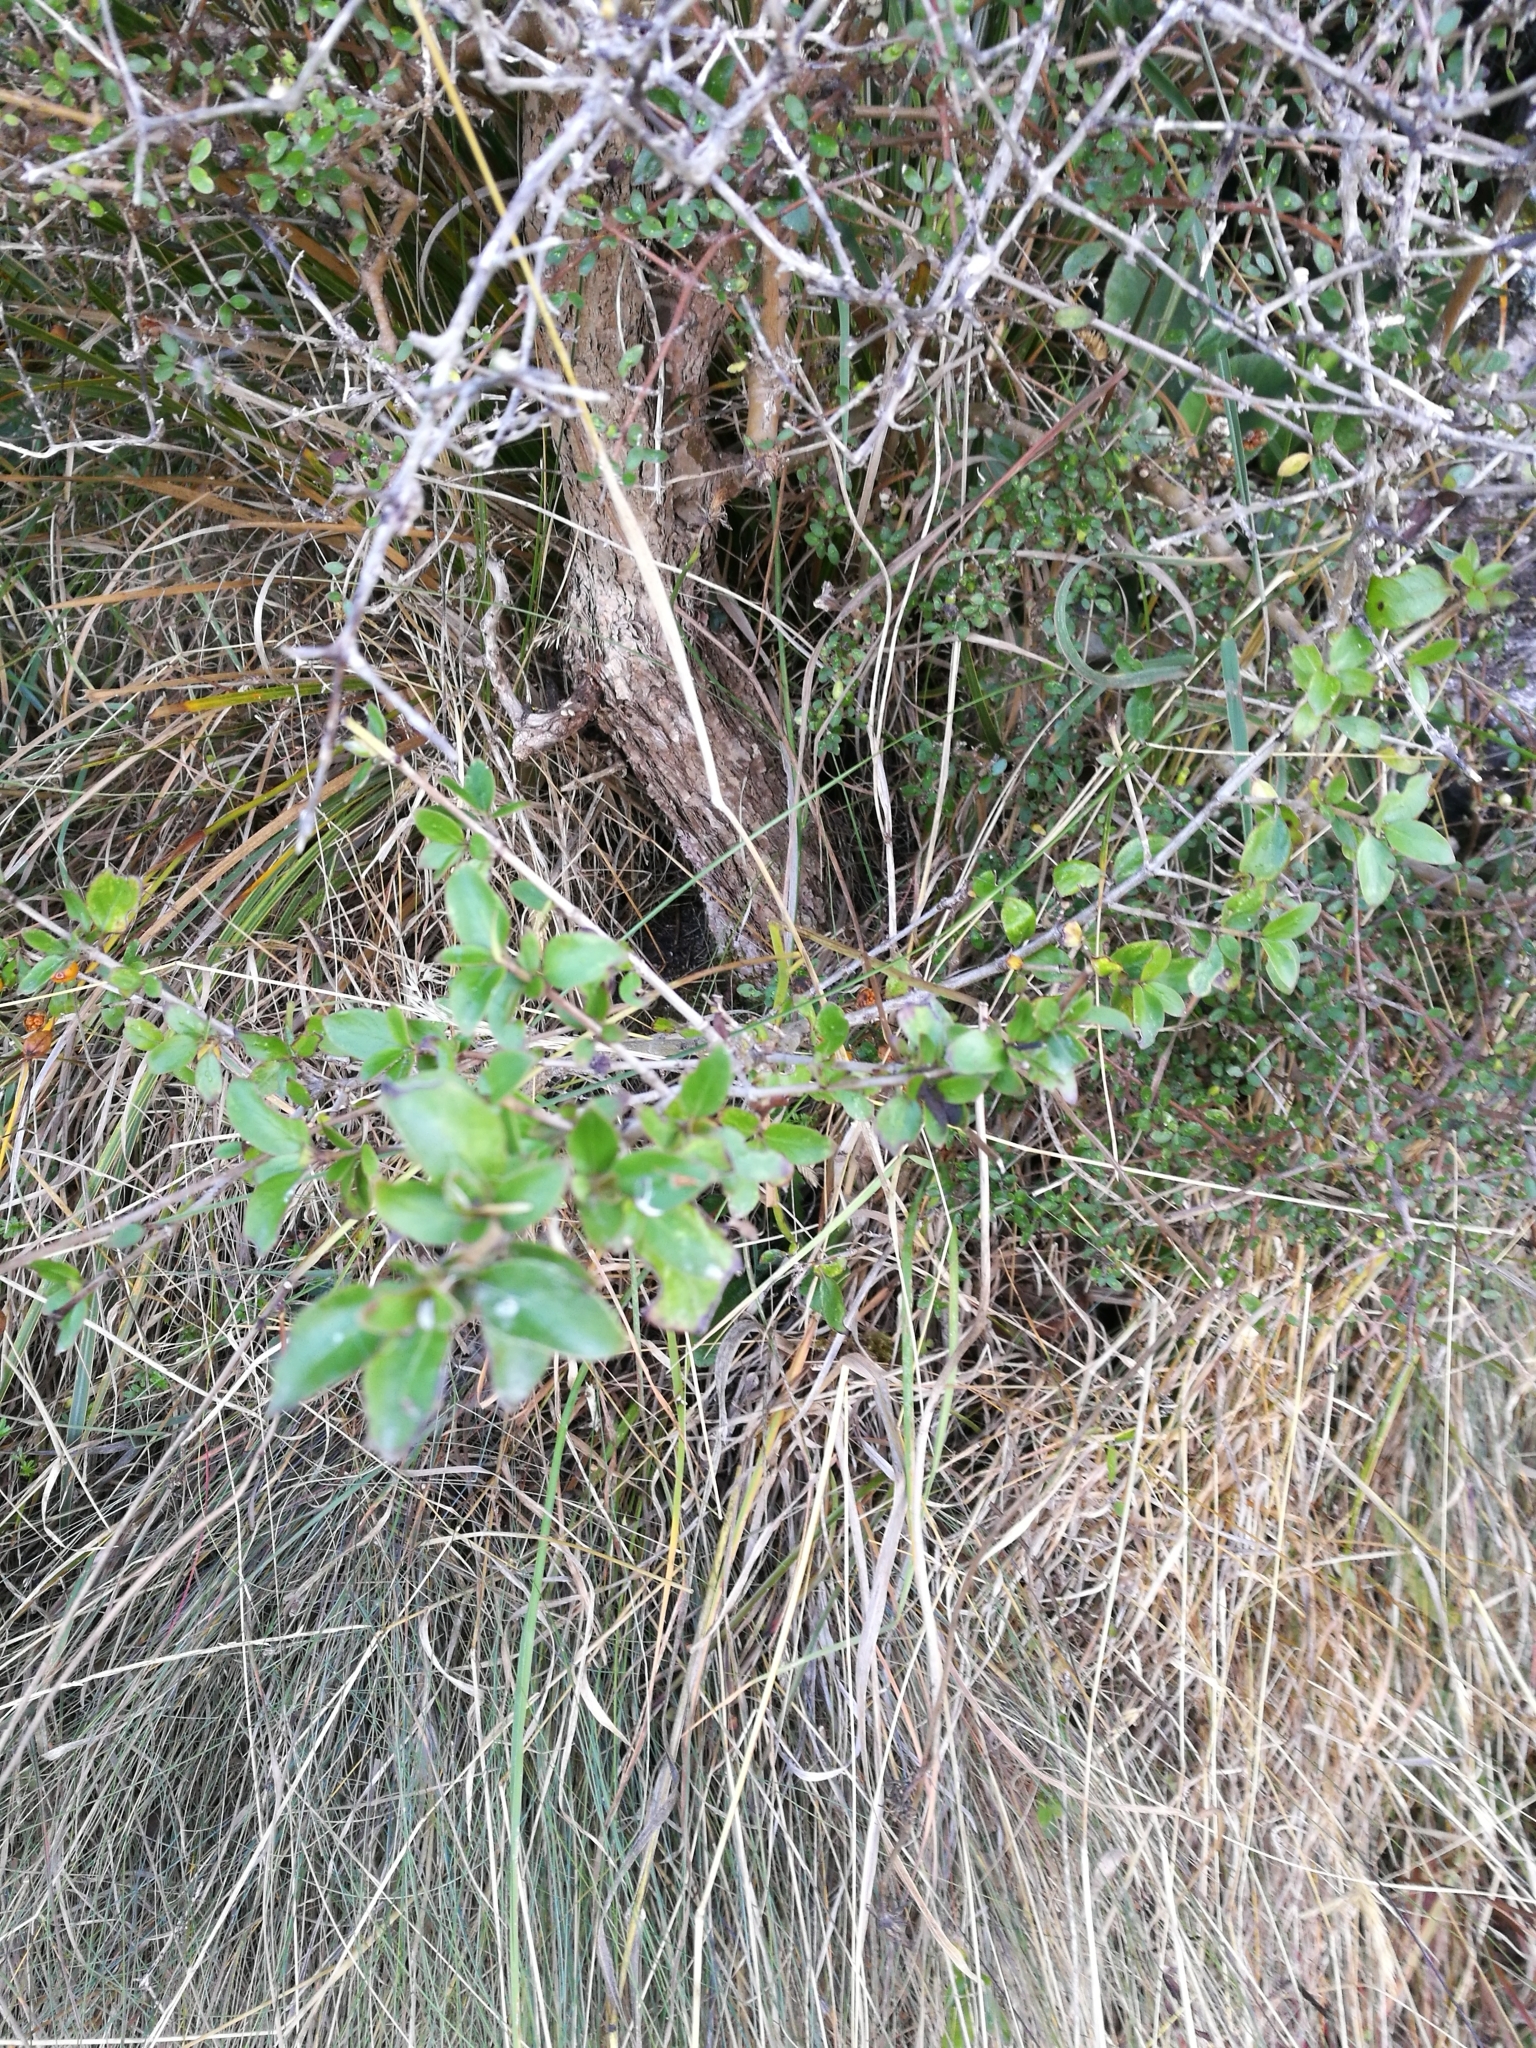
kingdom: Plantae
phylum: Tracheophyta
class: Magnoliopsida
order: Gentianales
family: Rubiaceae
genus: Coprosma
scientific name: Coprosma robusta
